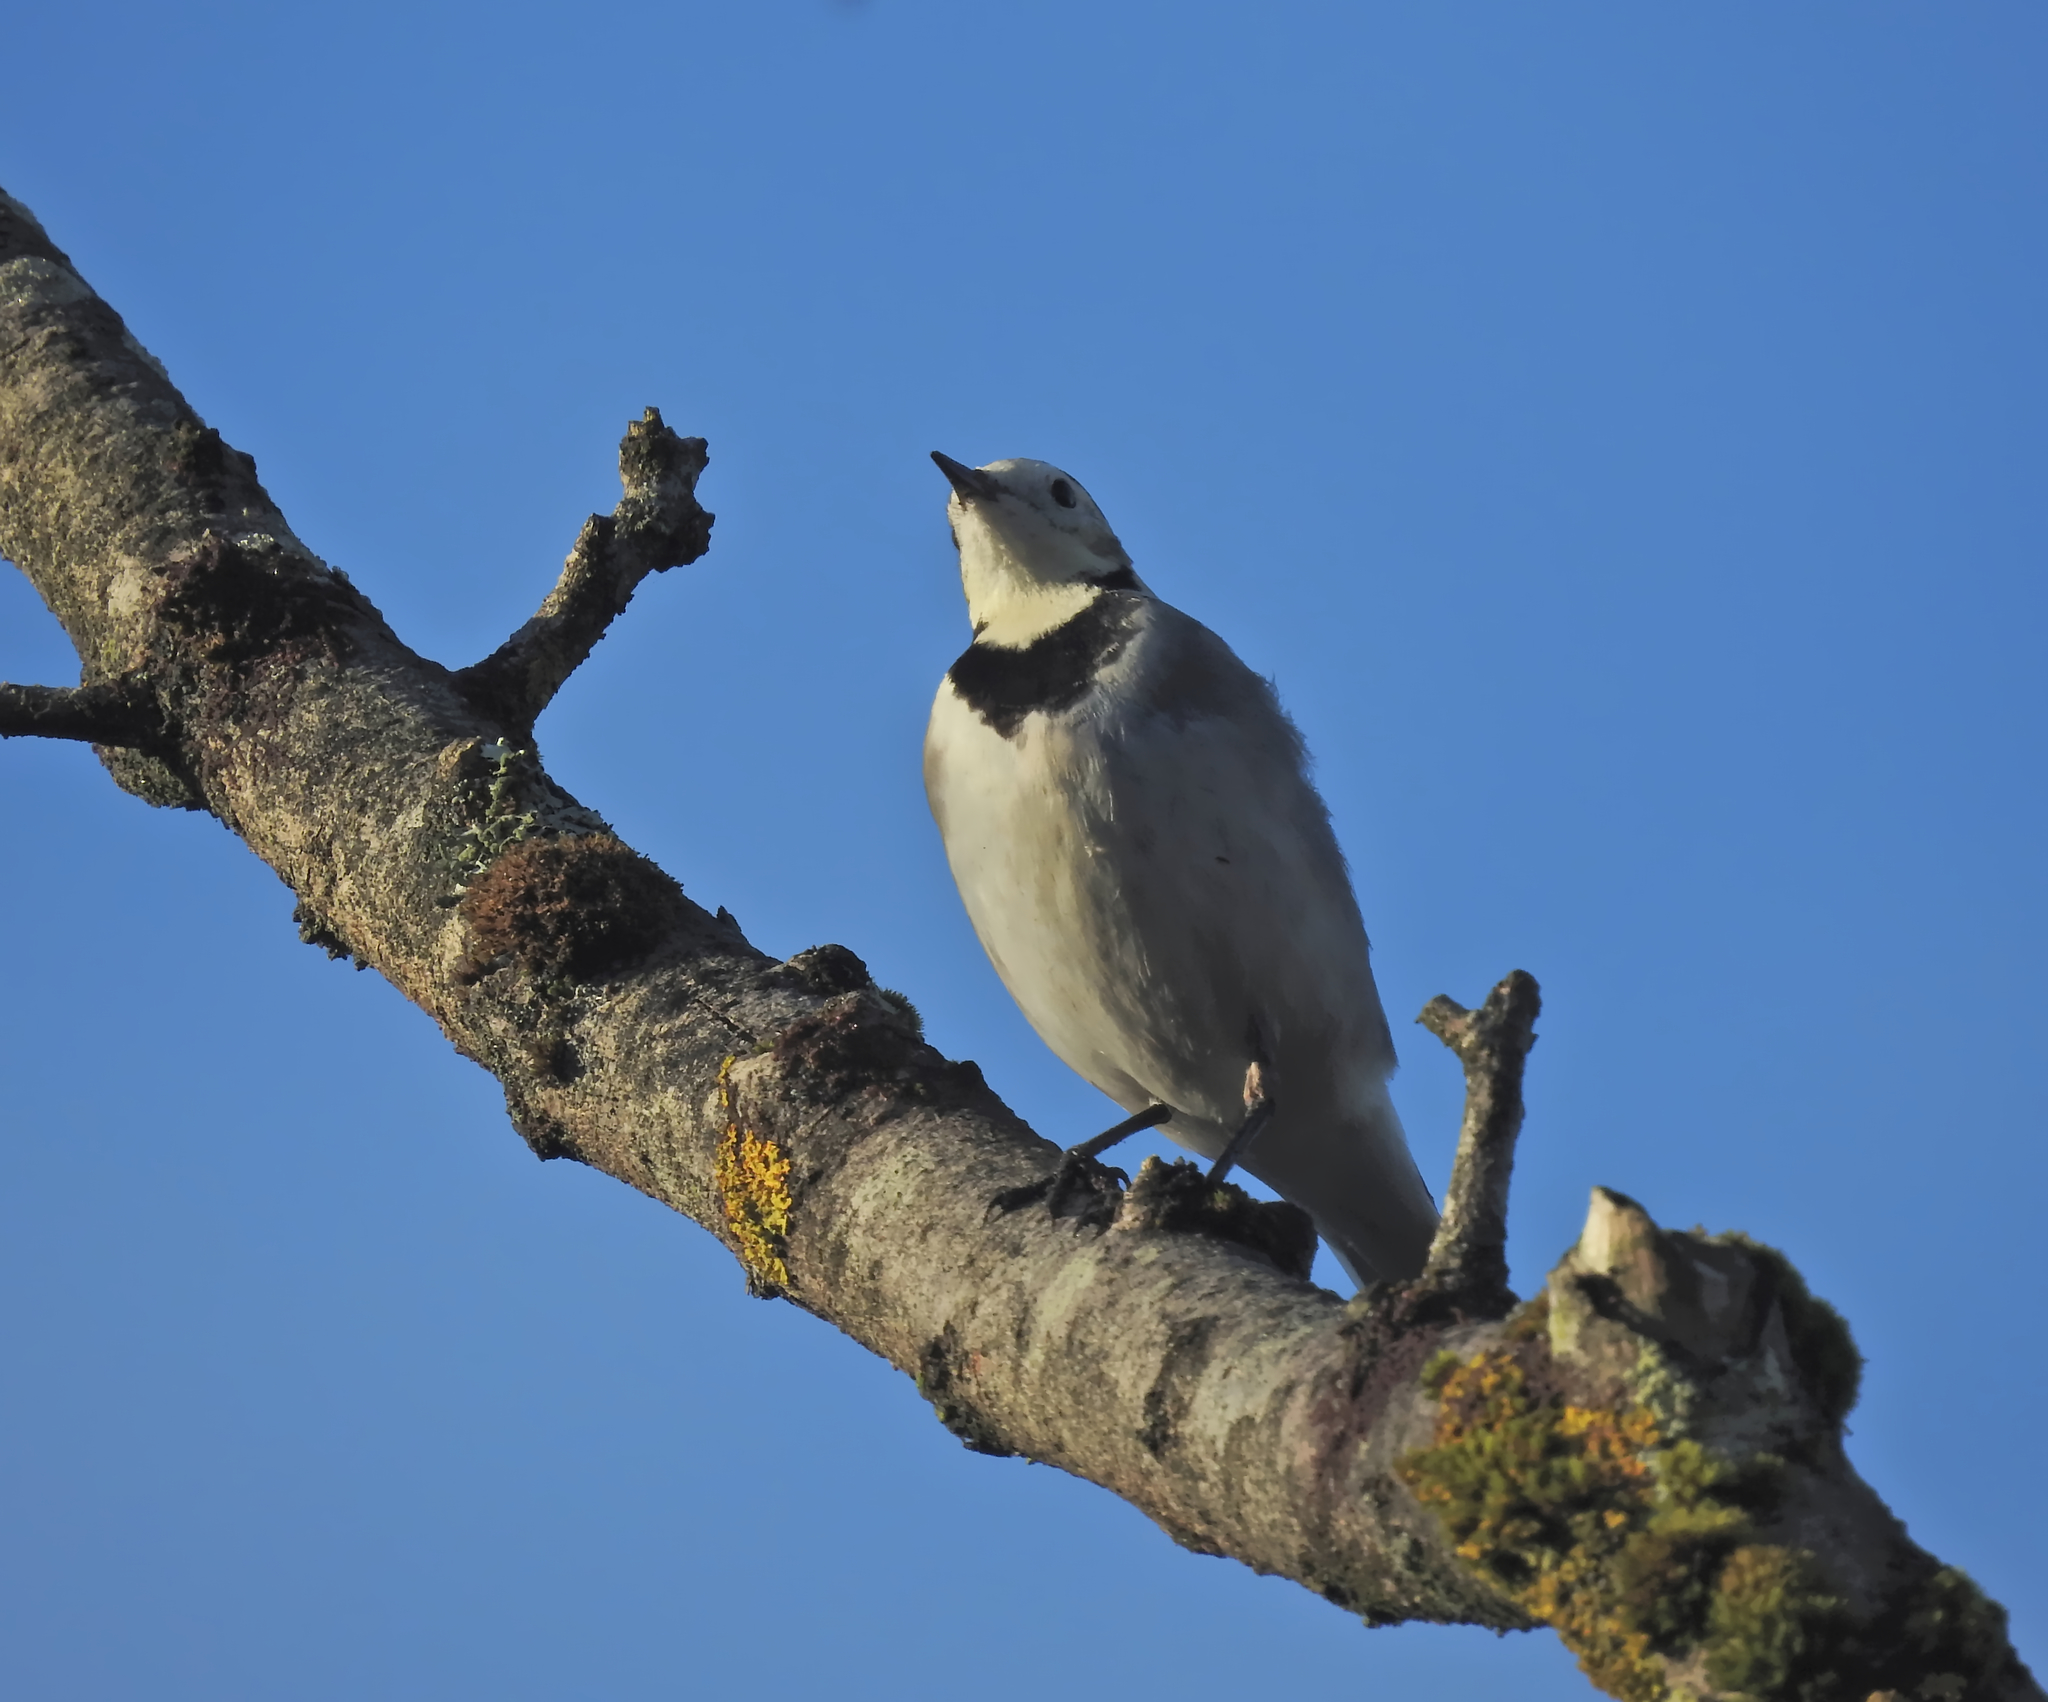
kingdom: Animalia
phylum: Chordata
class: Aves
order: Passeriformes
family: Motacillidae
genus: Motacilla
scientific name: Motacilla alba
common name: White wagtail
